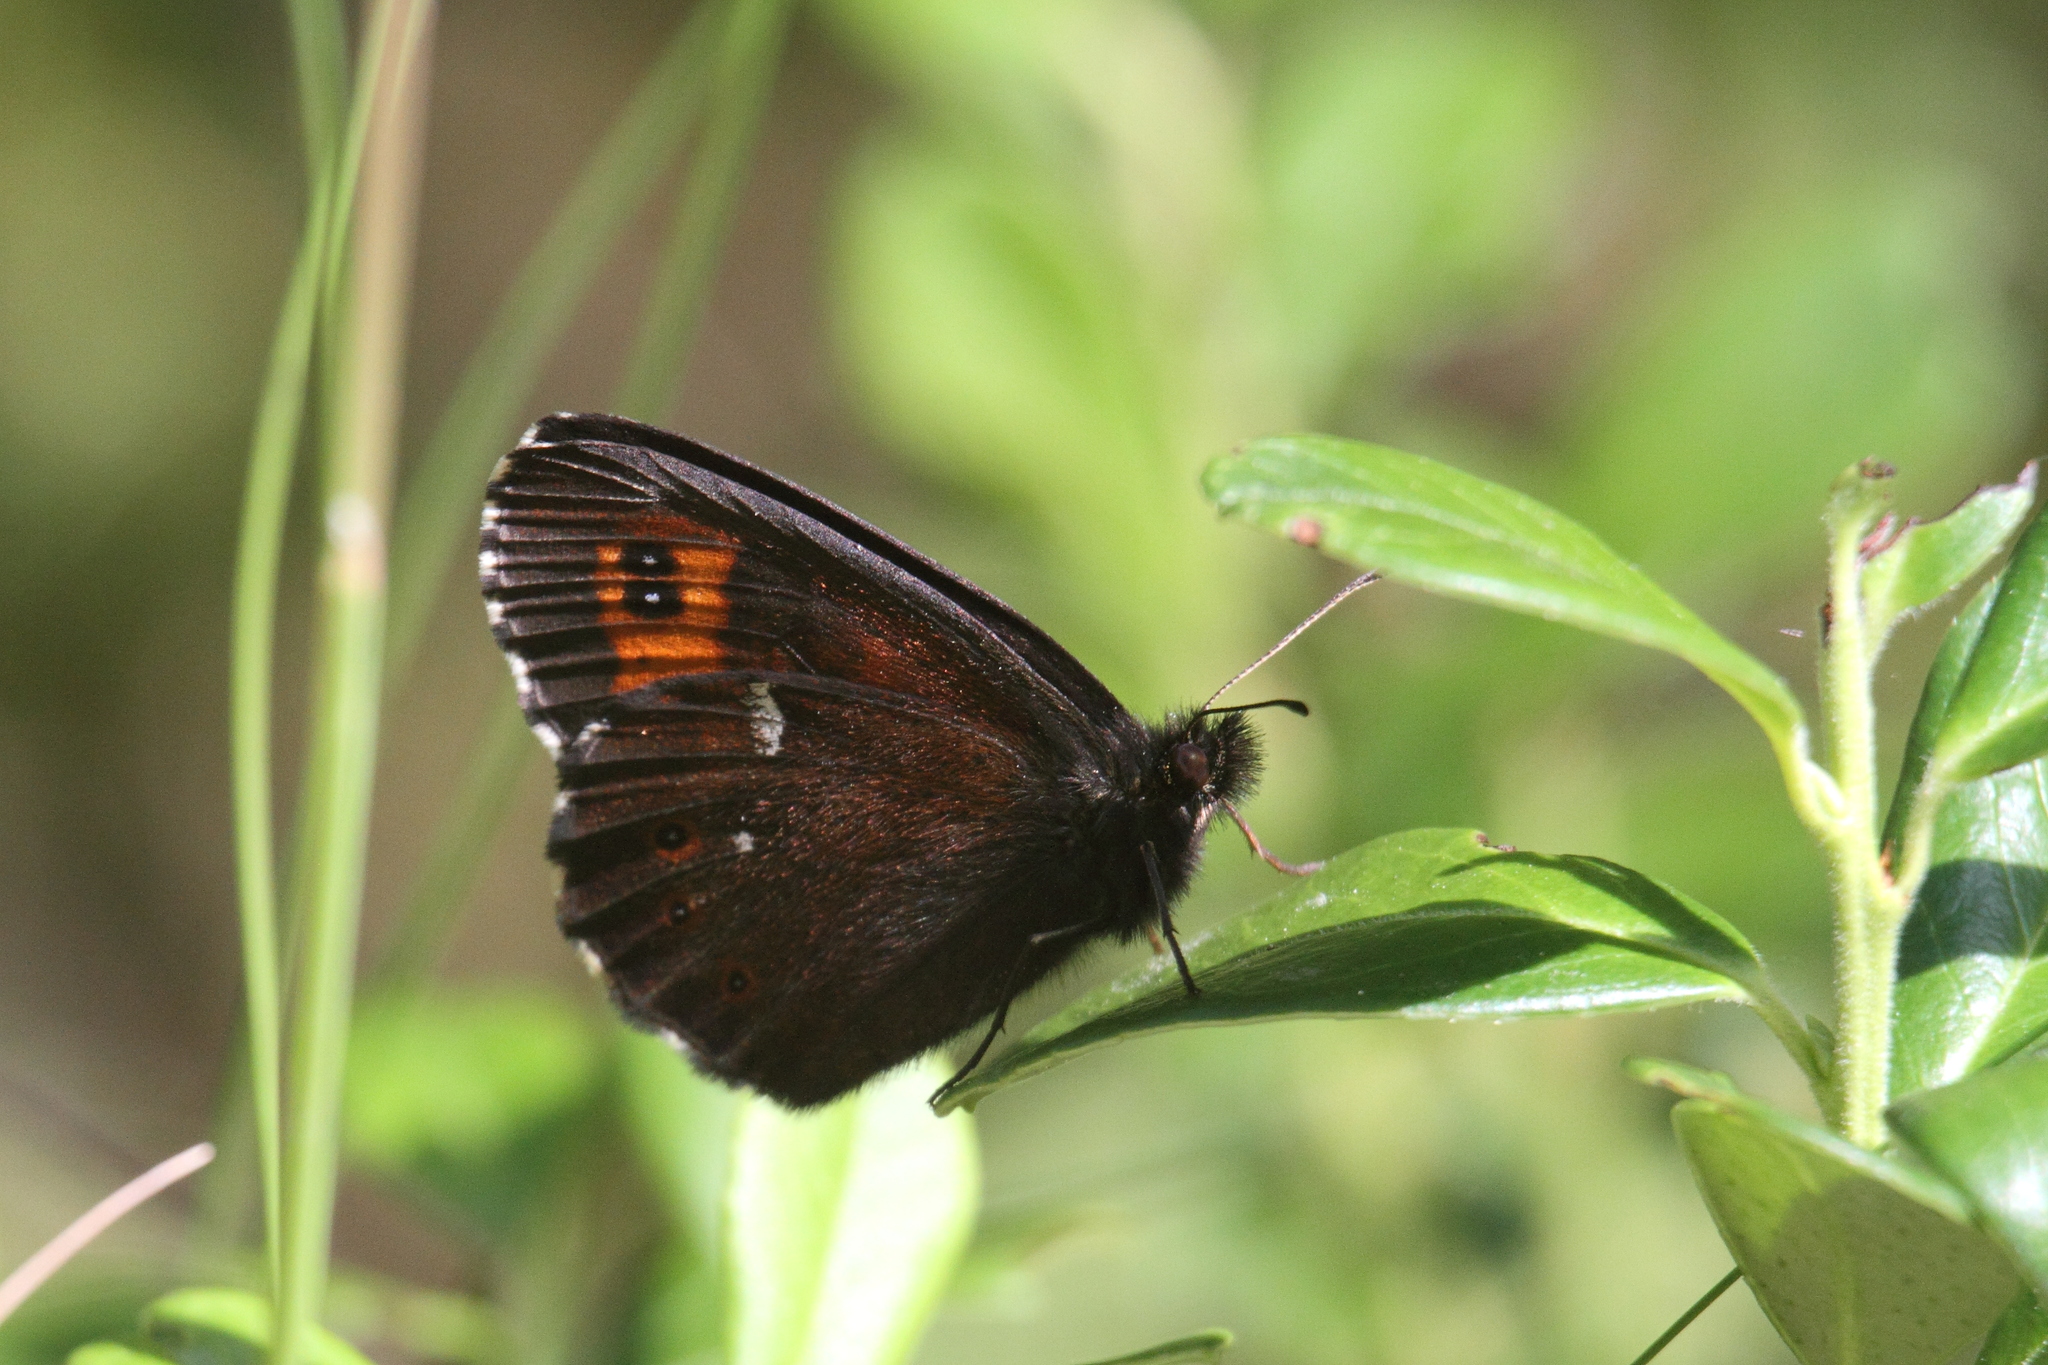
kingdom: Animalia
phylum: Arthropoda
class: Insecta
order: Lepidoptera
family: Nymphalidae
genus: Erebia
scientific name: Erebia ligea
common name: Arran brown
